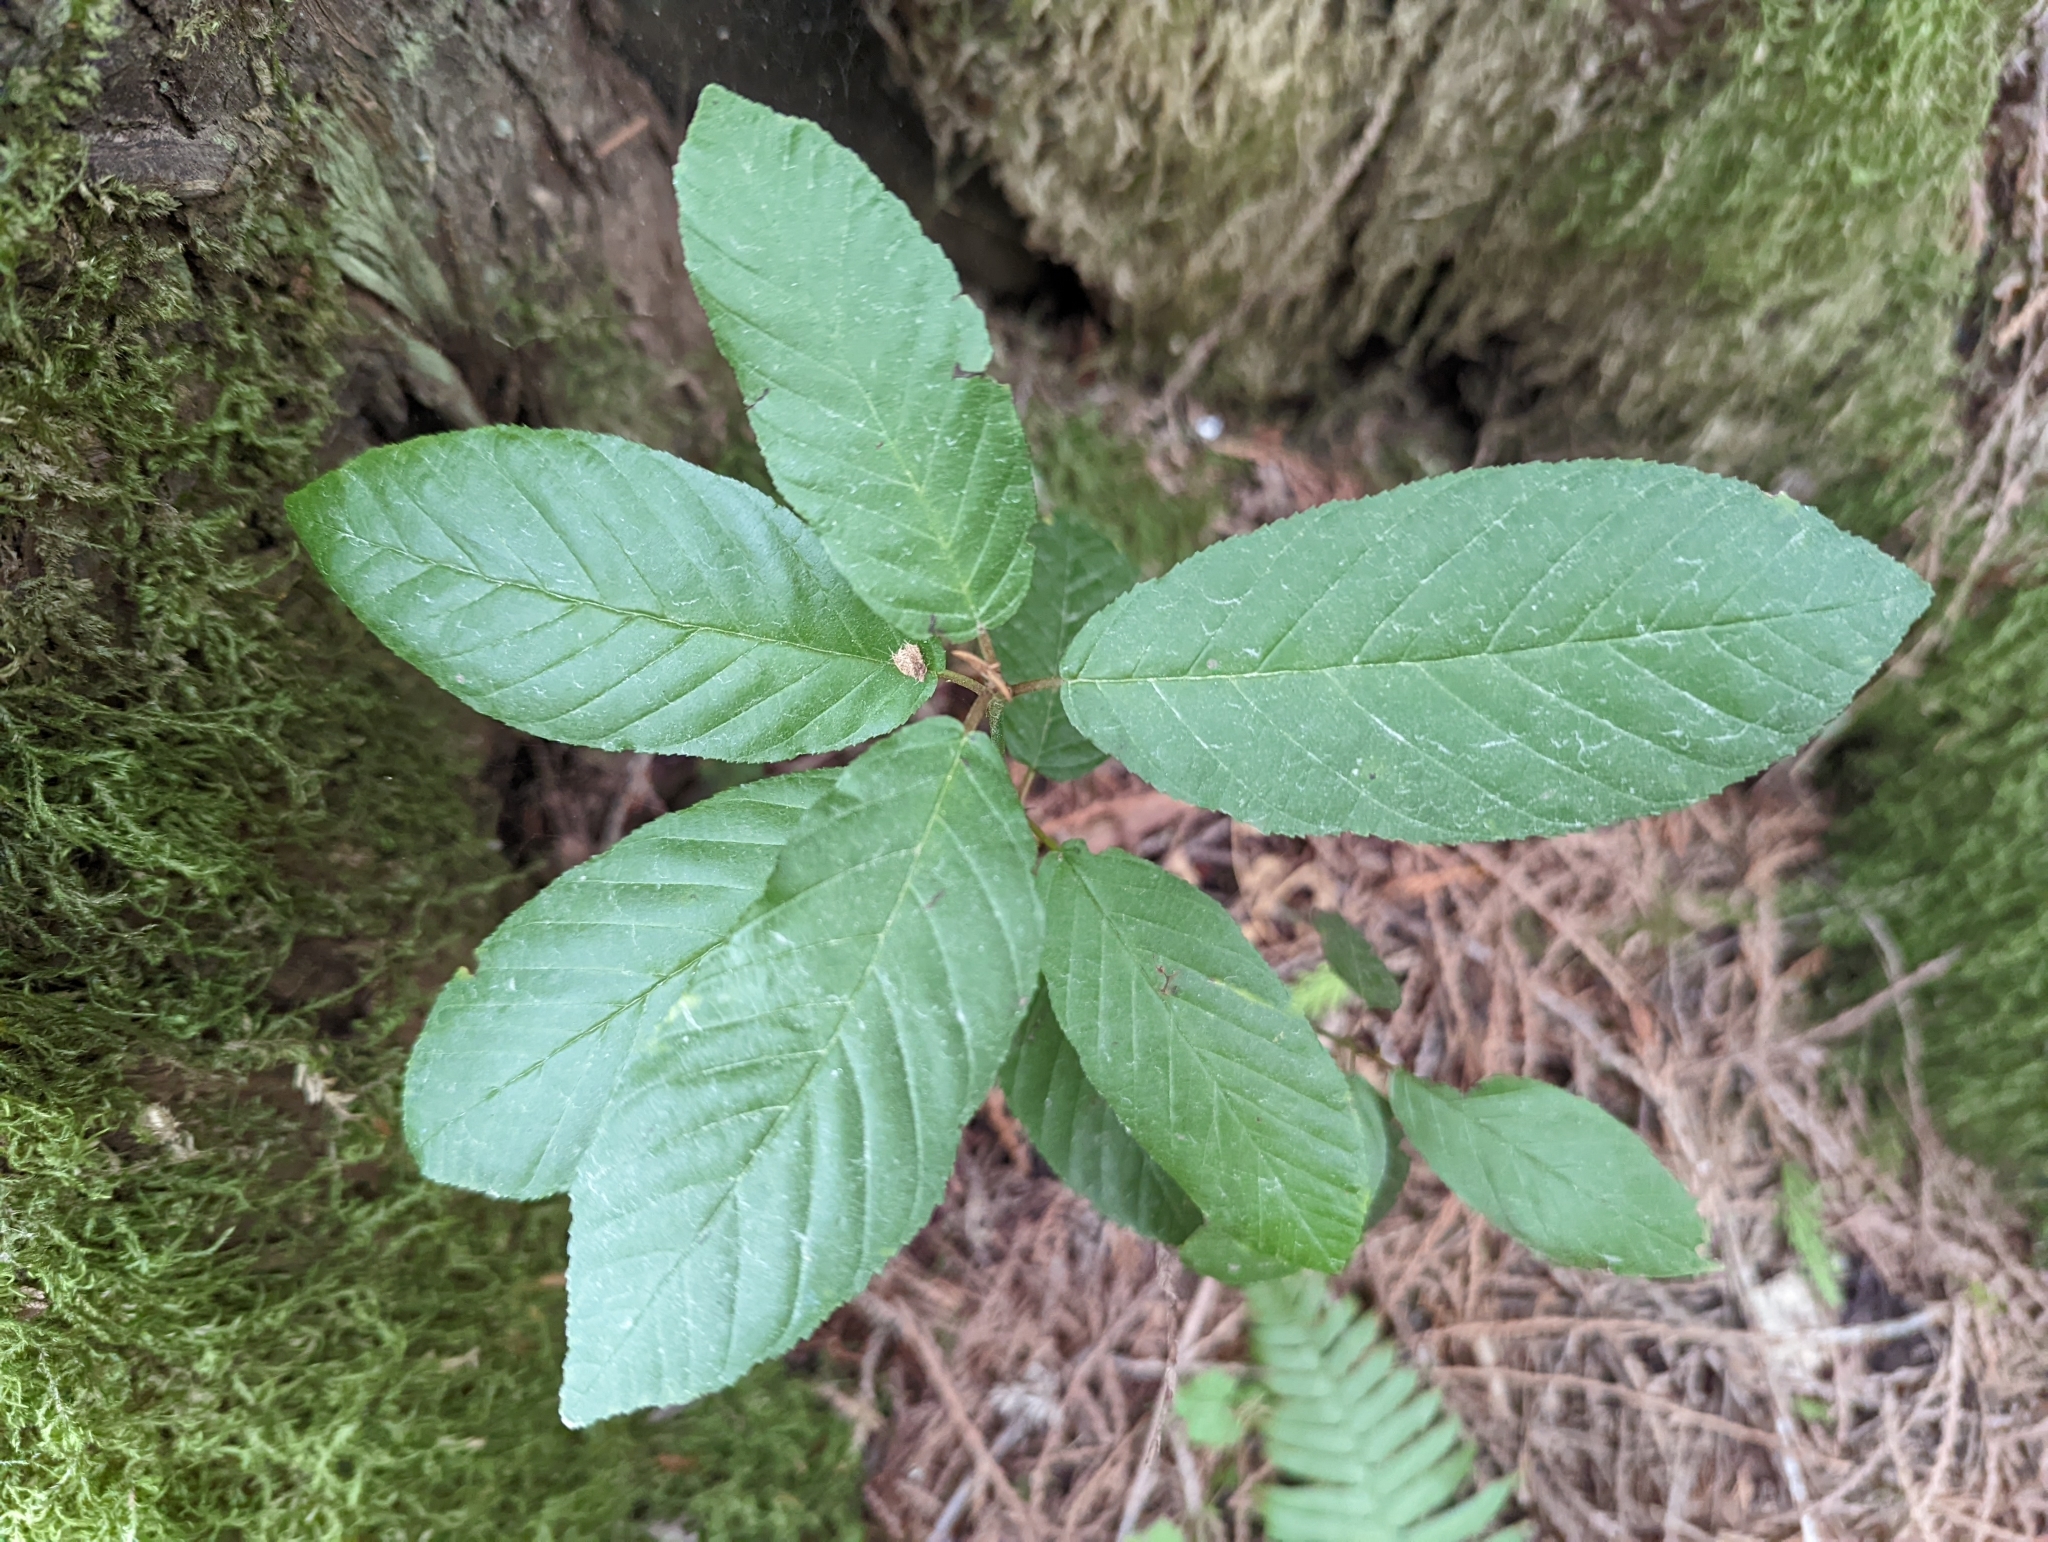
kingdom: Plantae
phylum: Tracheophyta
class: Magnoliopsida
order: Rosales
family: Rhamnaceae
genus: Frangula
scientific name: Frangula purshiana
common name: Cascara buckthorn
